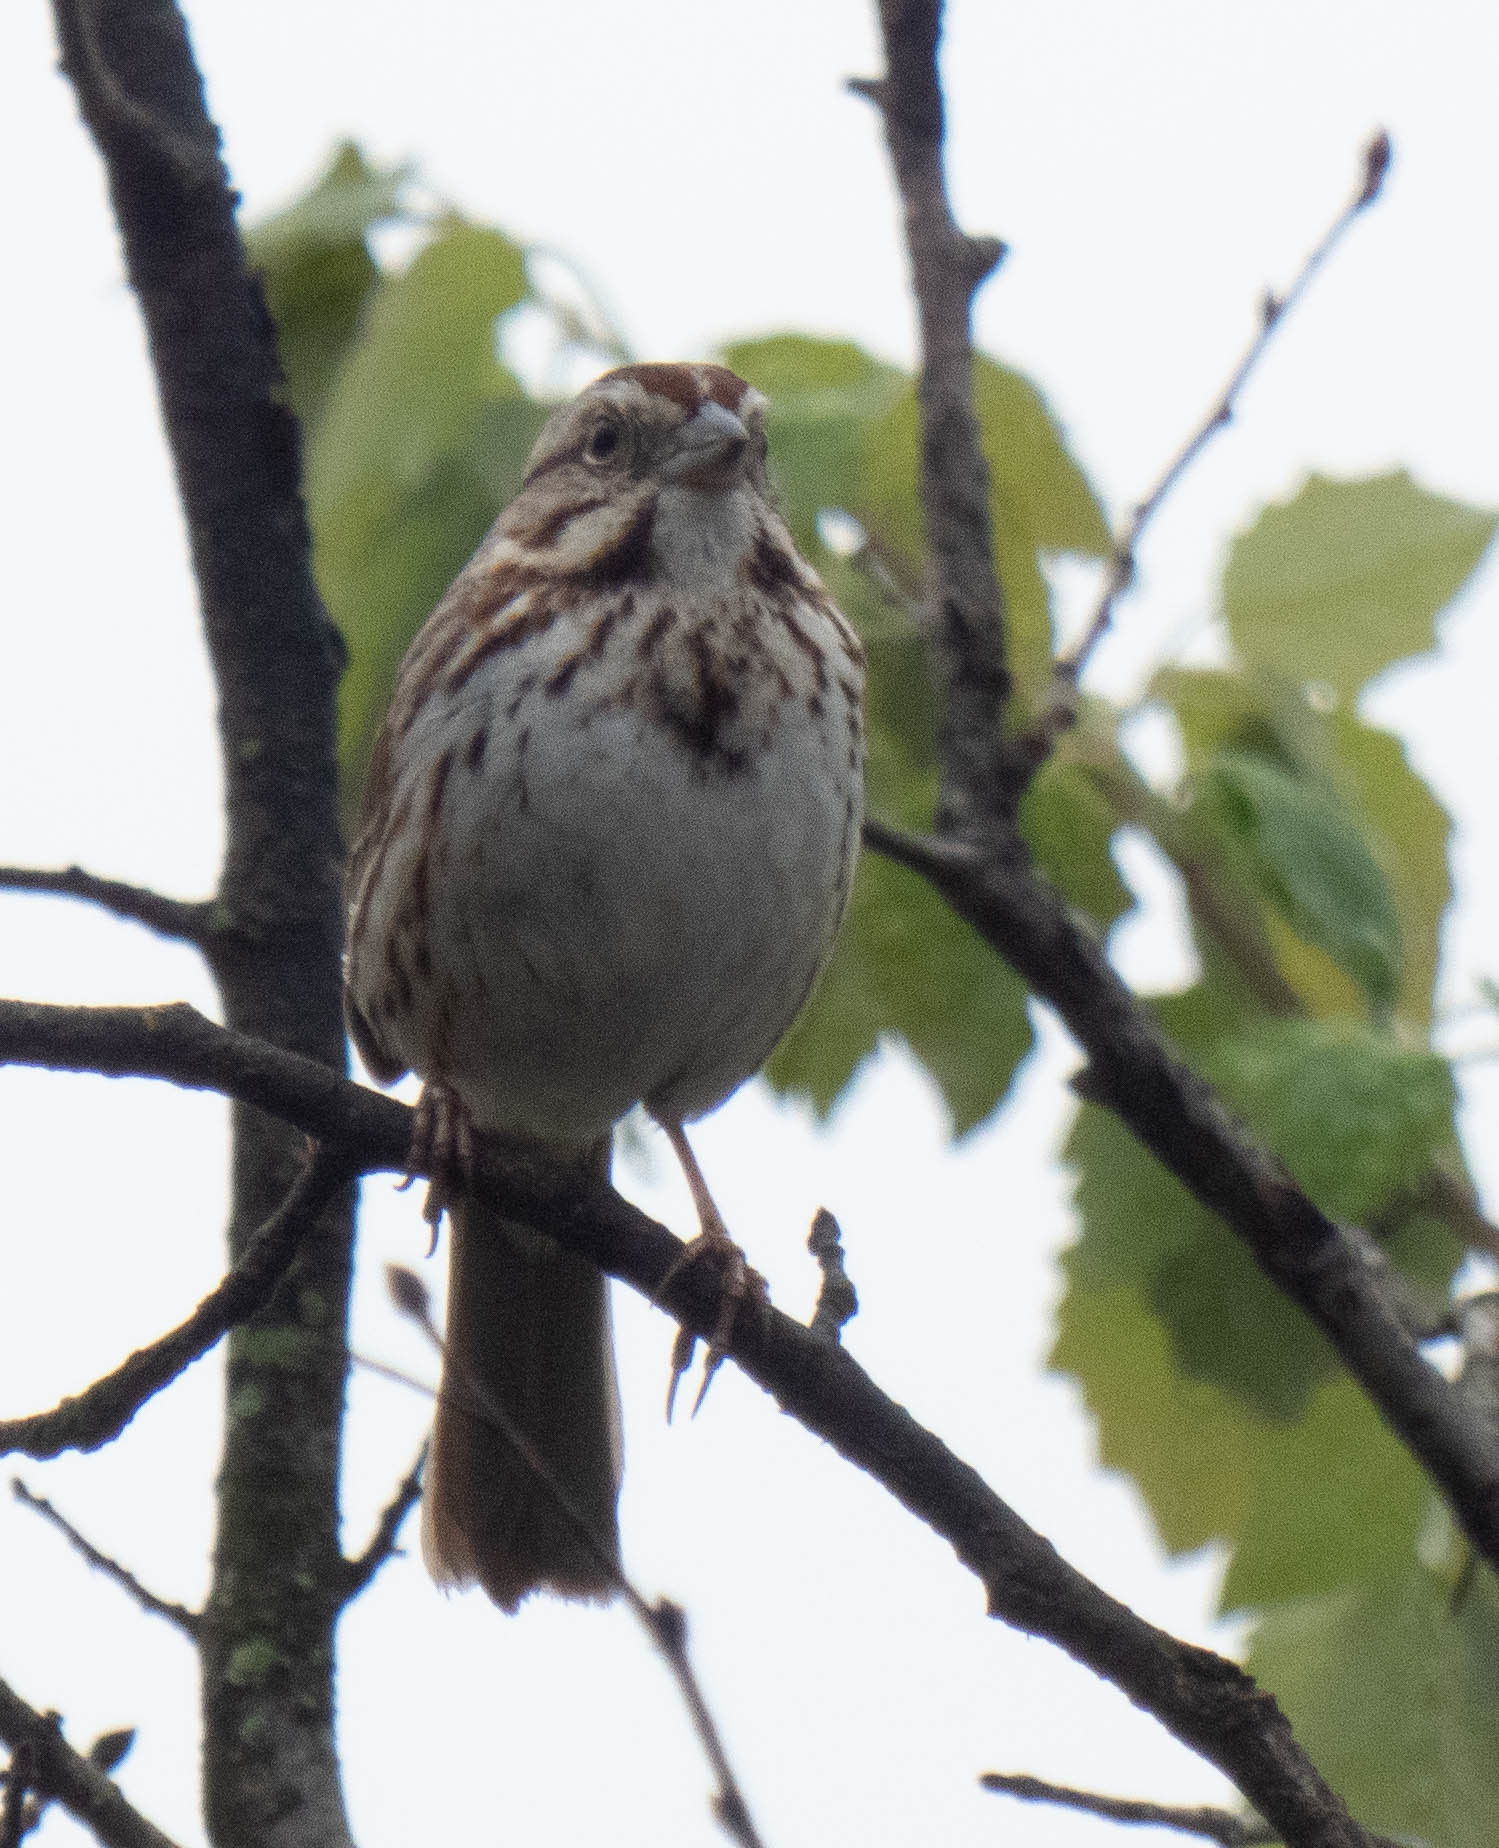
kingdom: Animalia
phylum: Chordata
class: Aves
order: Passeriformes
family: Passerellidae
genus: Melospiza
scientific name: Melospiza melodia
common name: Song sparrow
